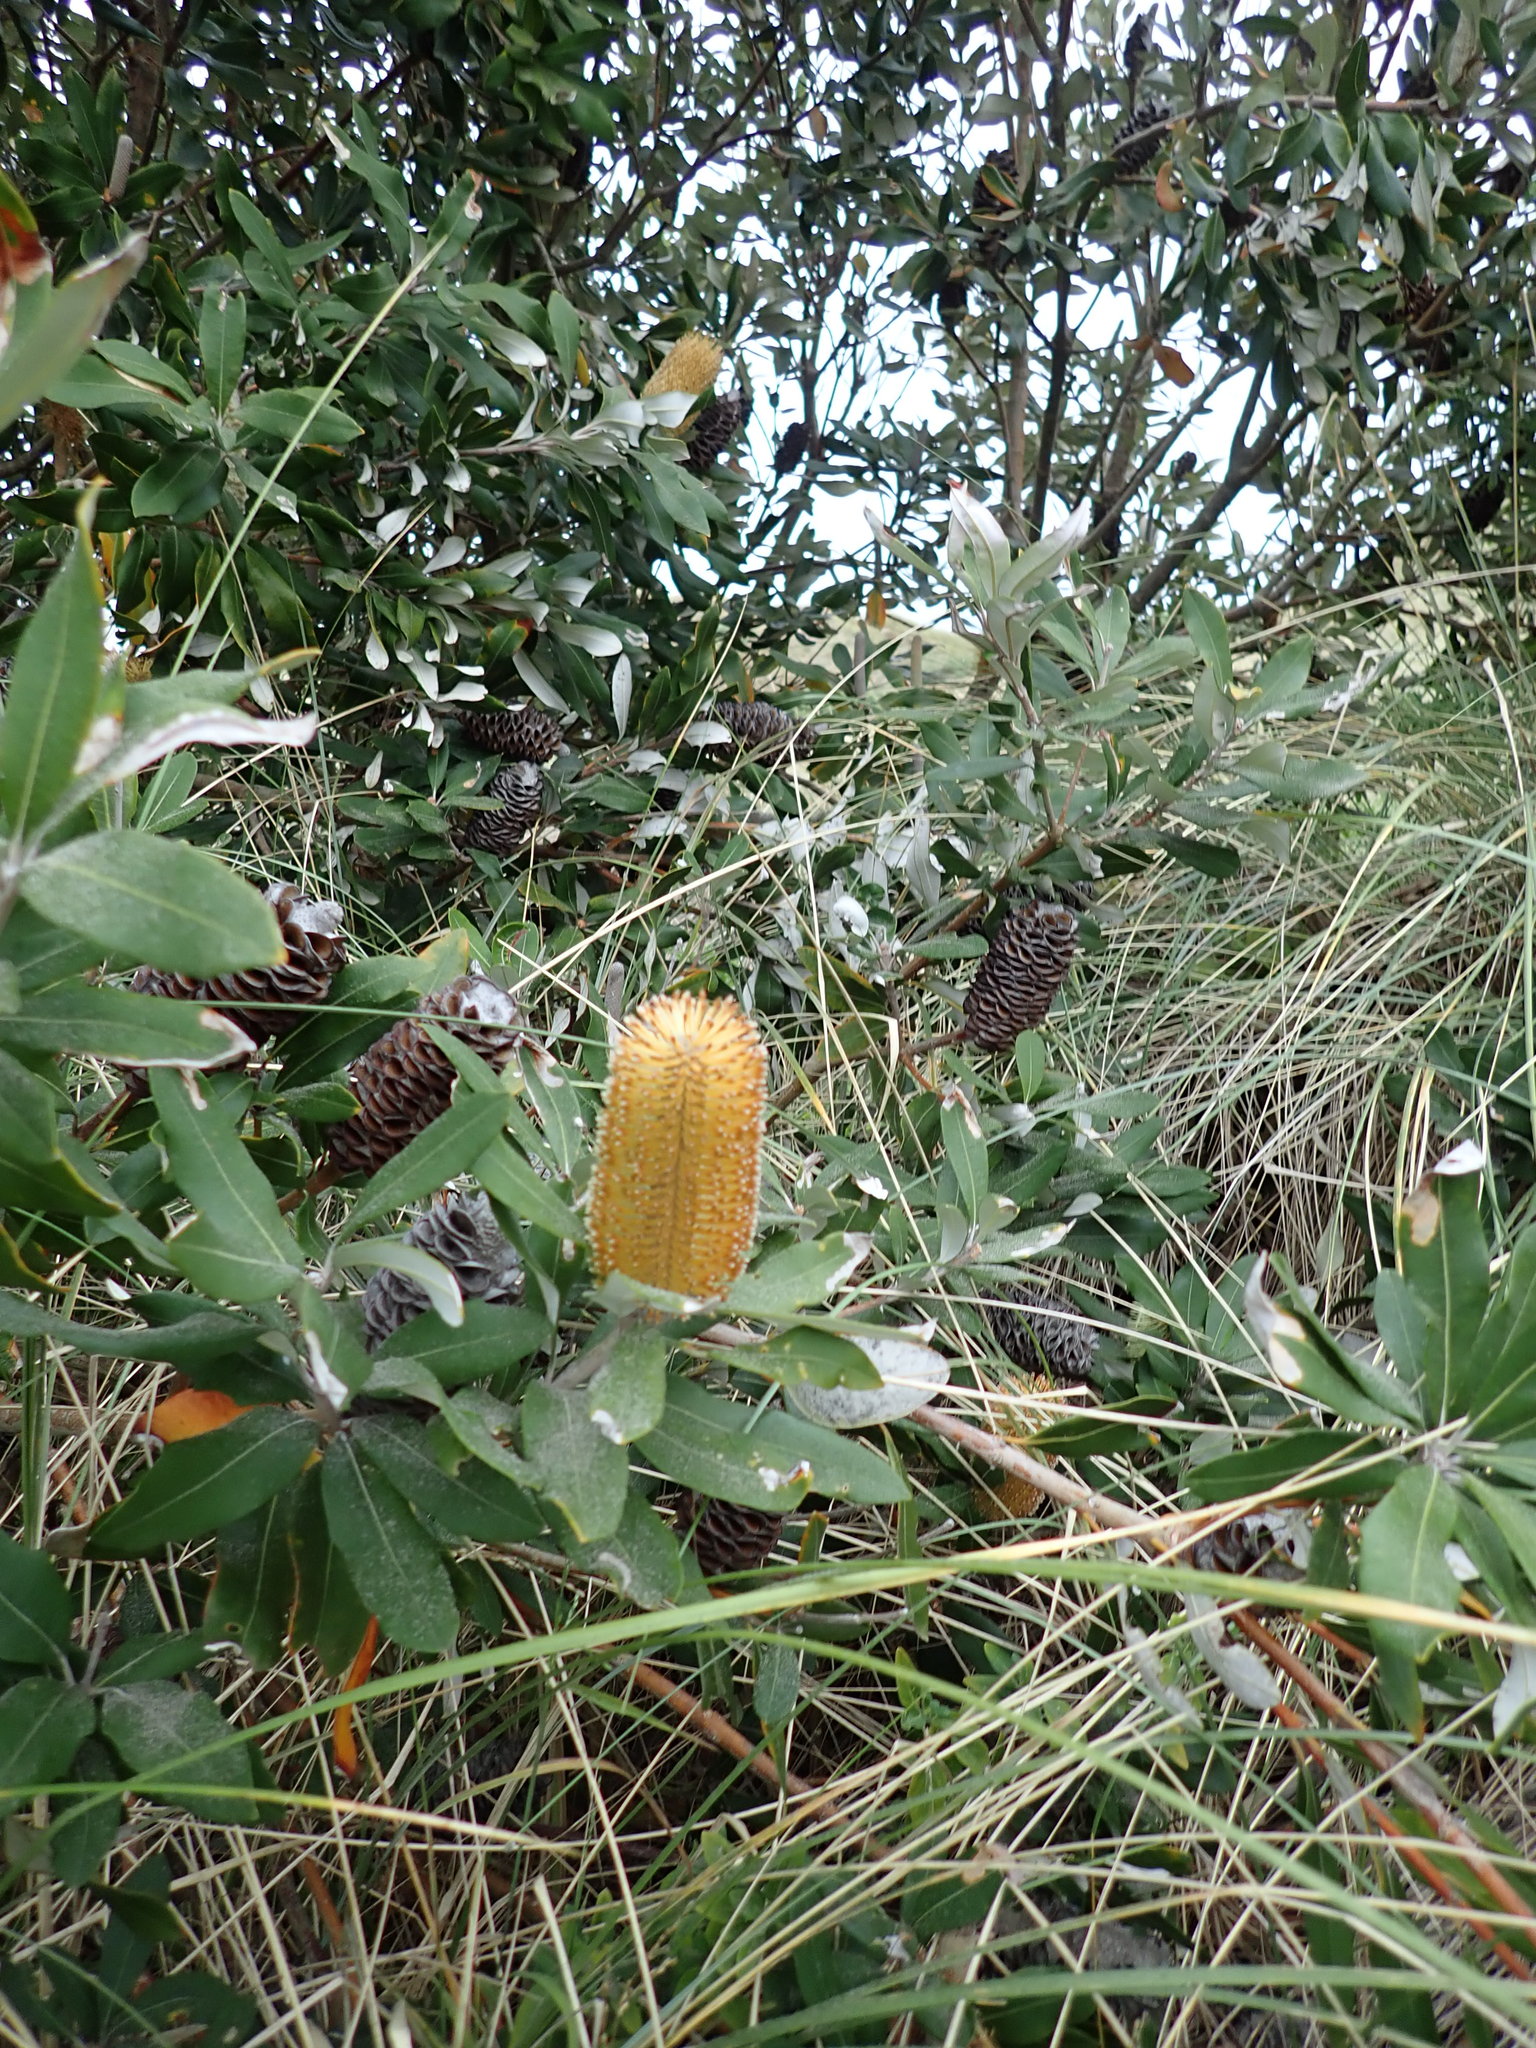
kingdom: Plantae
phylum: Tracheophyta
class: Magnoliopsida
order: Proteales
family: Proteaceae
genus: Banksia
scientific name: Banksia integrifolia
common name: White-honeysuckle
